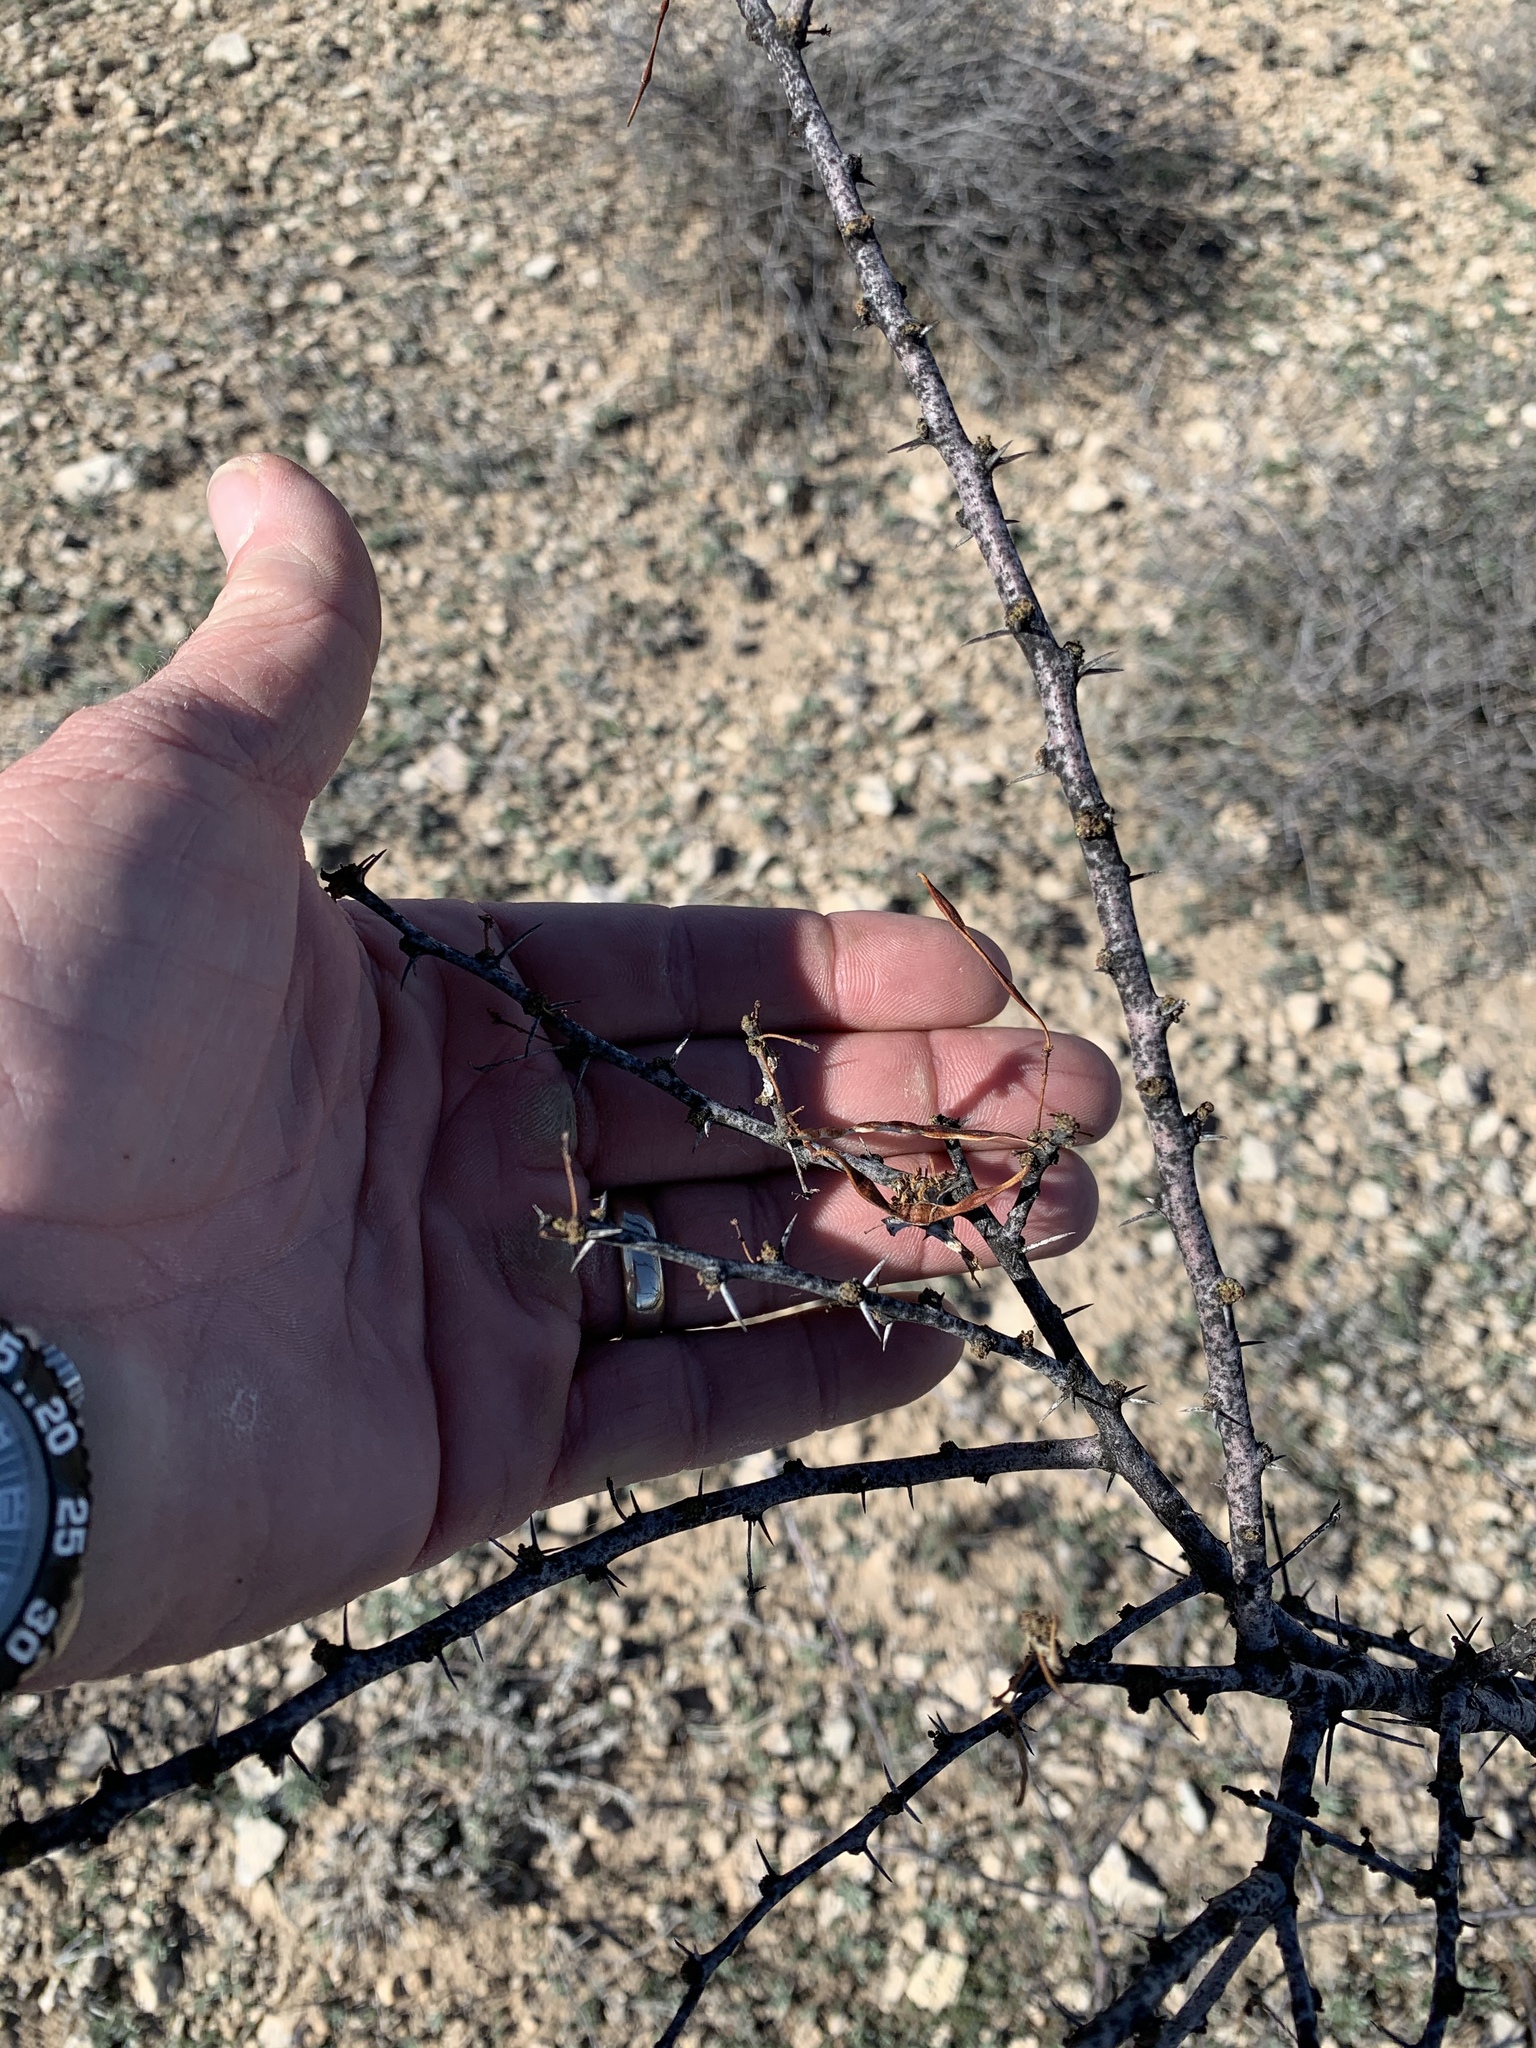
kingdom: Plantae
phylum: Tracheophyta
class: Magnoliopsida
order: Fabales
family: Fabaceae
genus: Vachellia
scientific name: Vachellia constricta
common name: Mescat acacia
